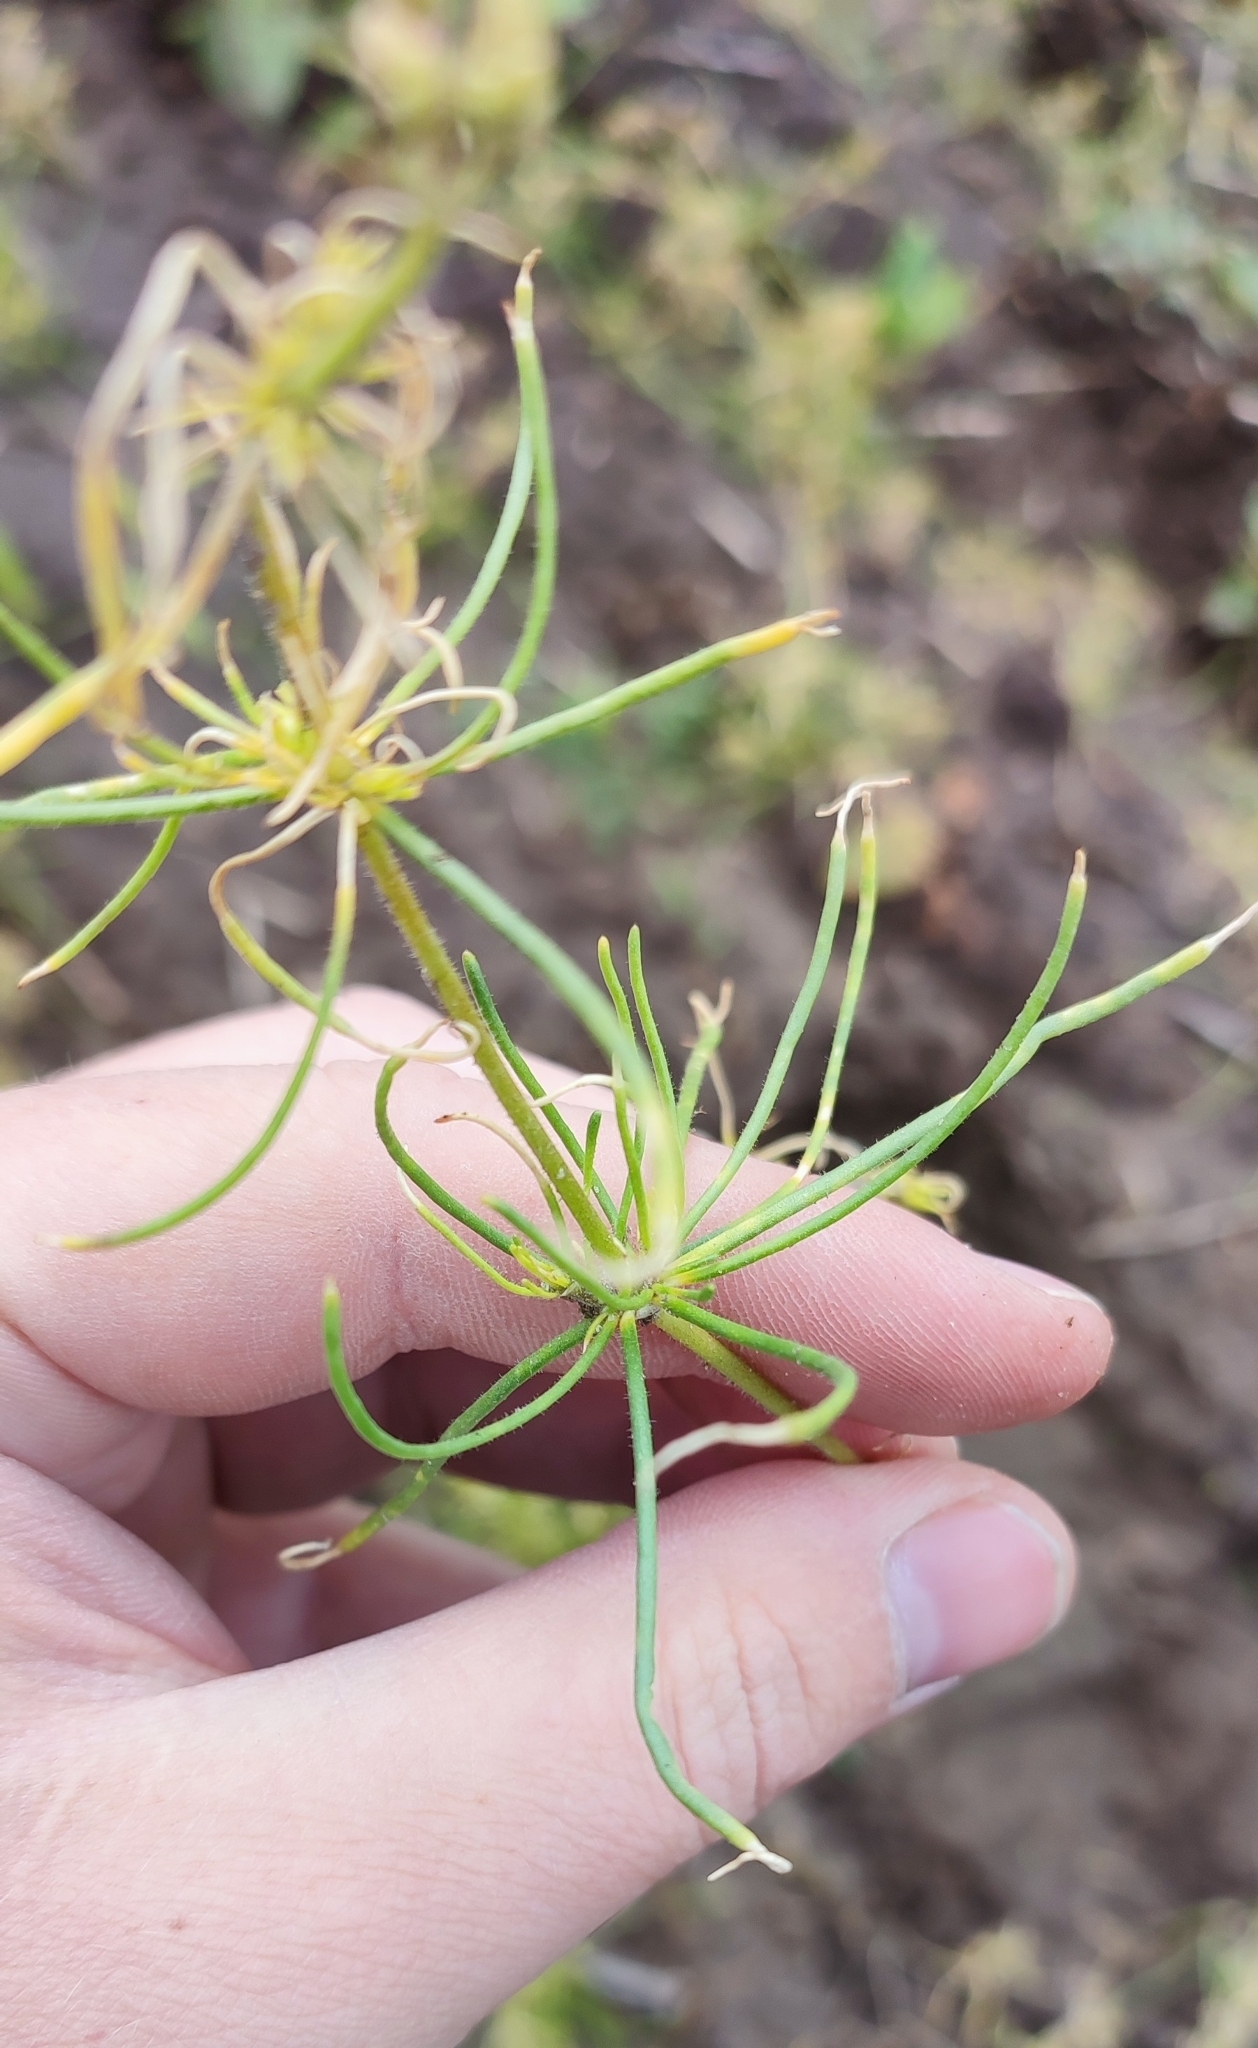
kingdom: Plantae
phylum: Tracheophyta
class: Magnoliopsida
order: Caryophyllales
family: Caryophyllaceae
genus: Spergula
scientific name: Spergula arvensis
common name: Corn spurrey
